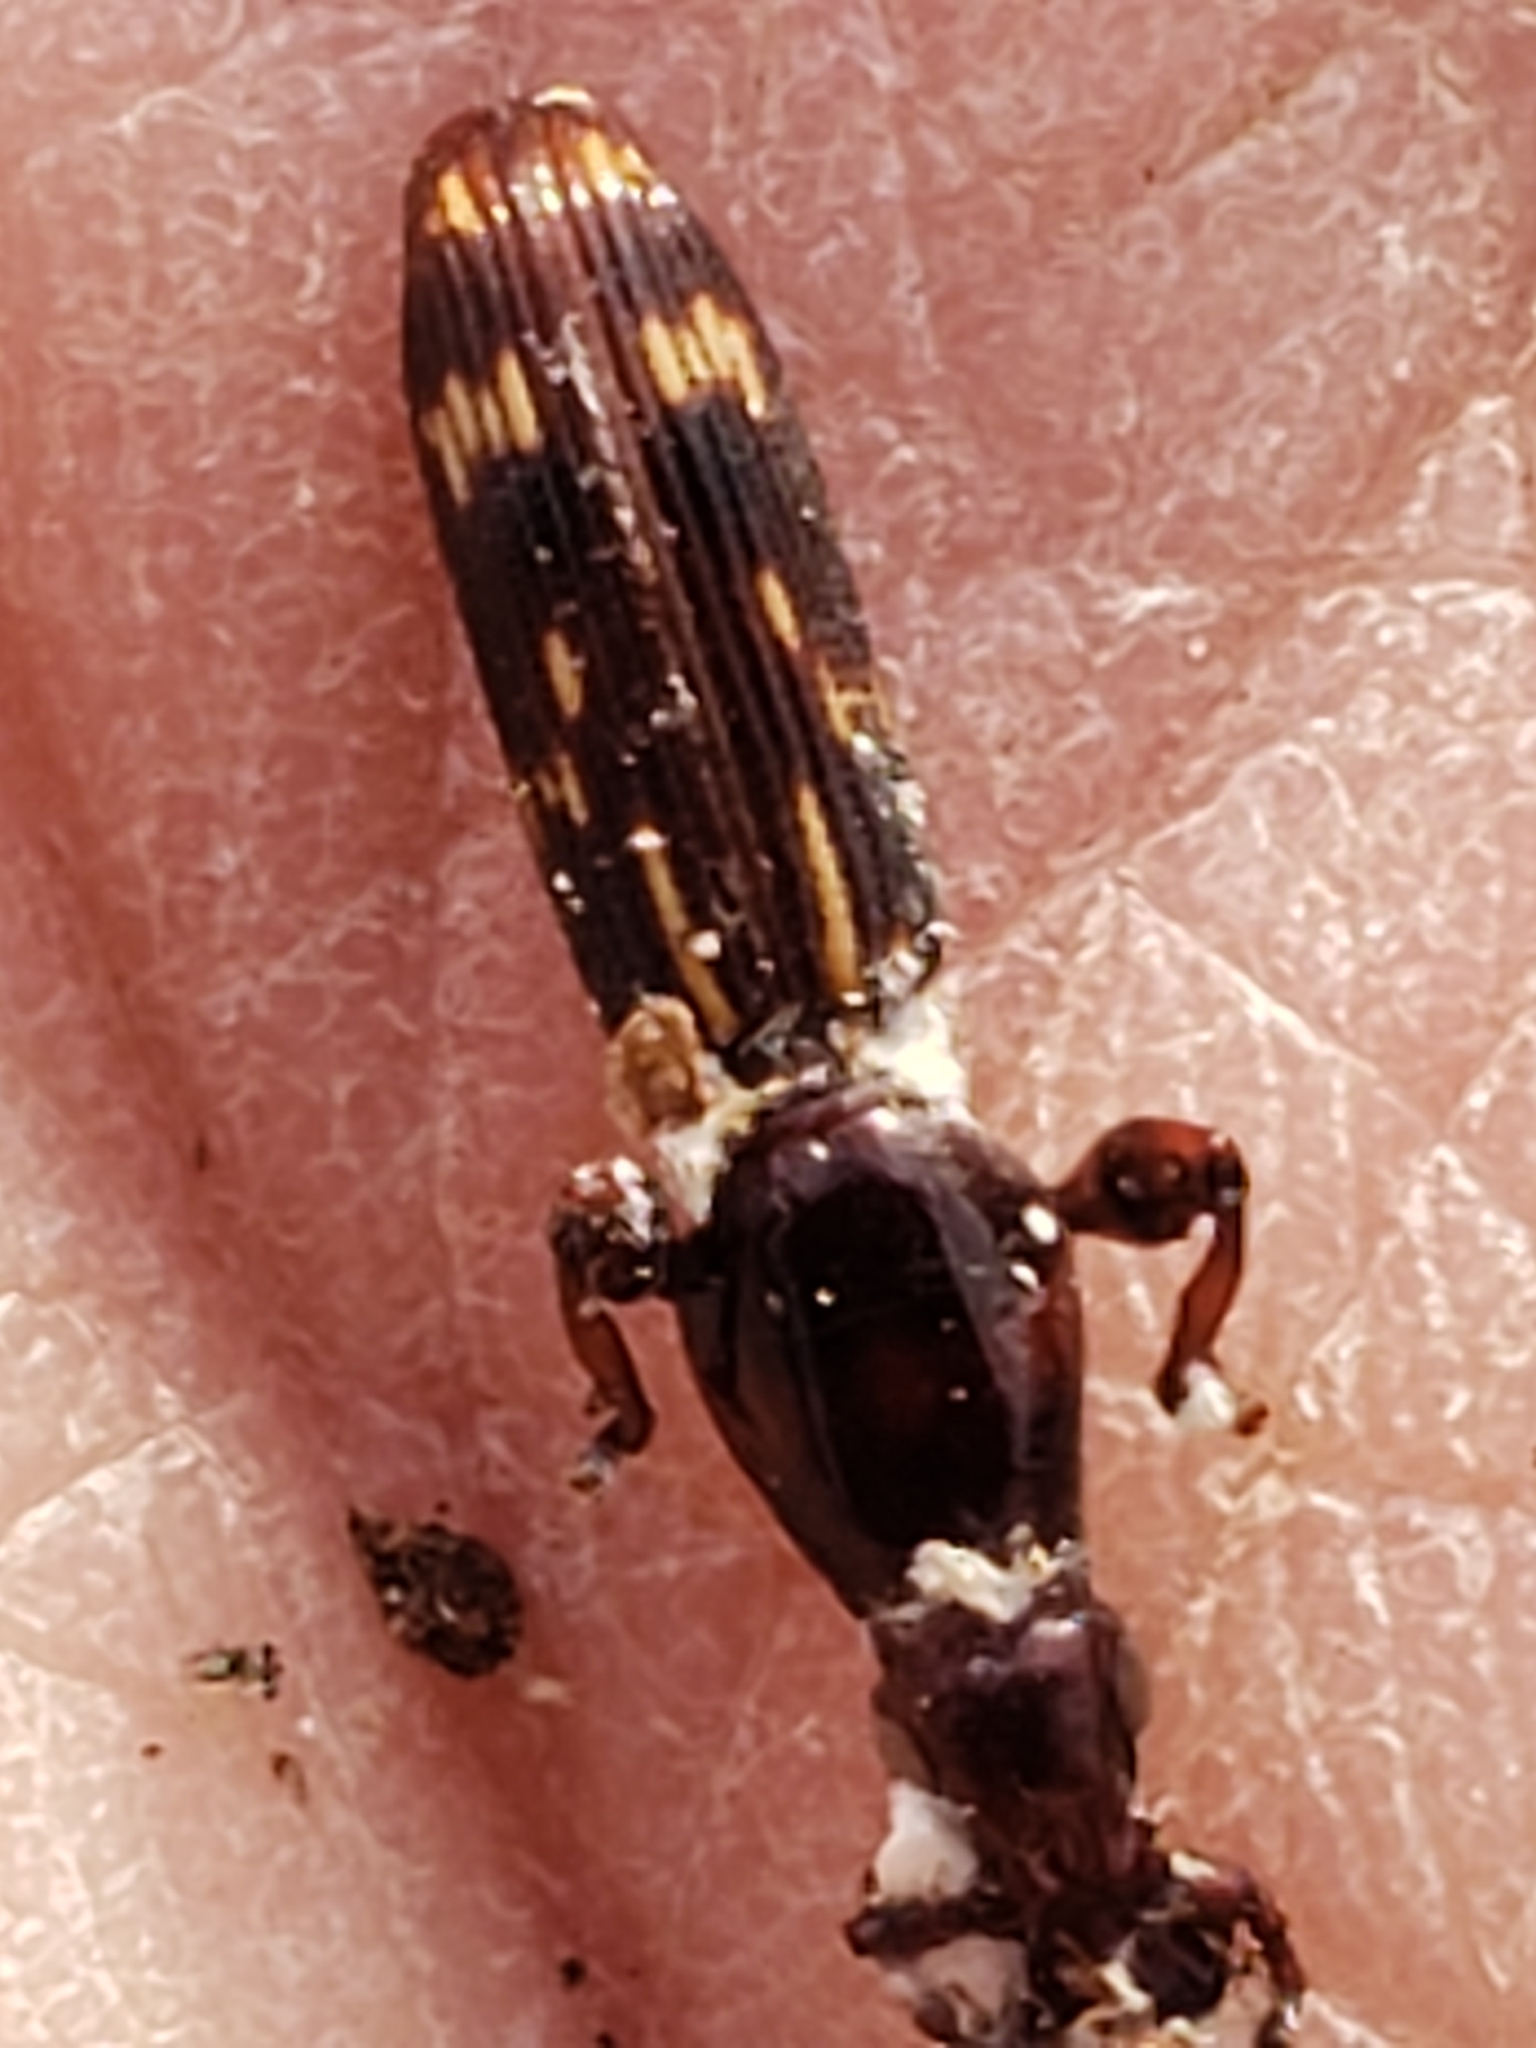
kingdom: Animalia
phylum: Arthropoda
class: Insecta
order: Coleoptera
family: Brentidae
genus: Arrenodes
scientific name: Arrenodes minutus
